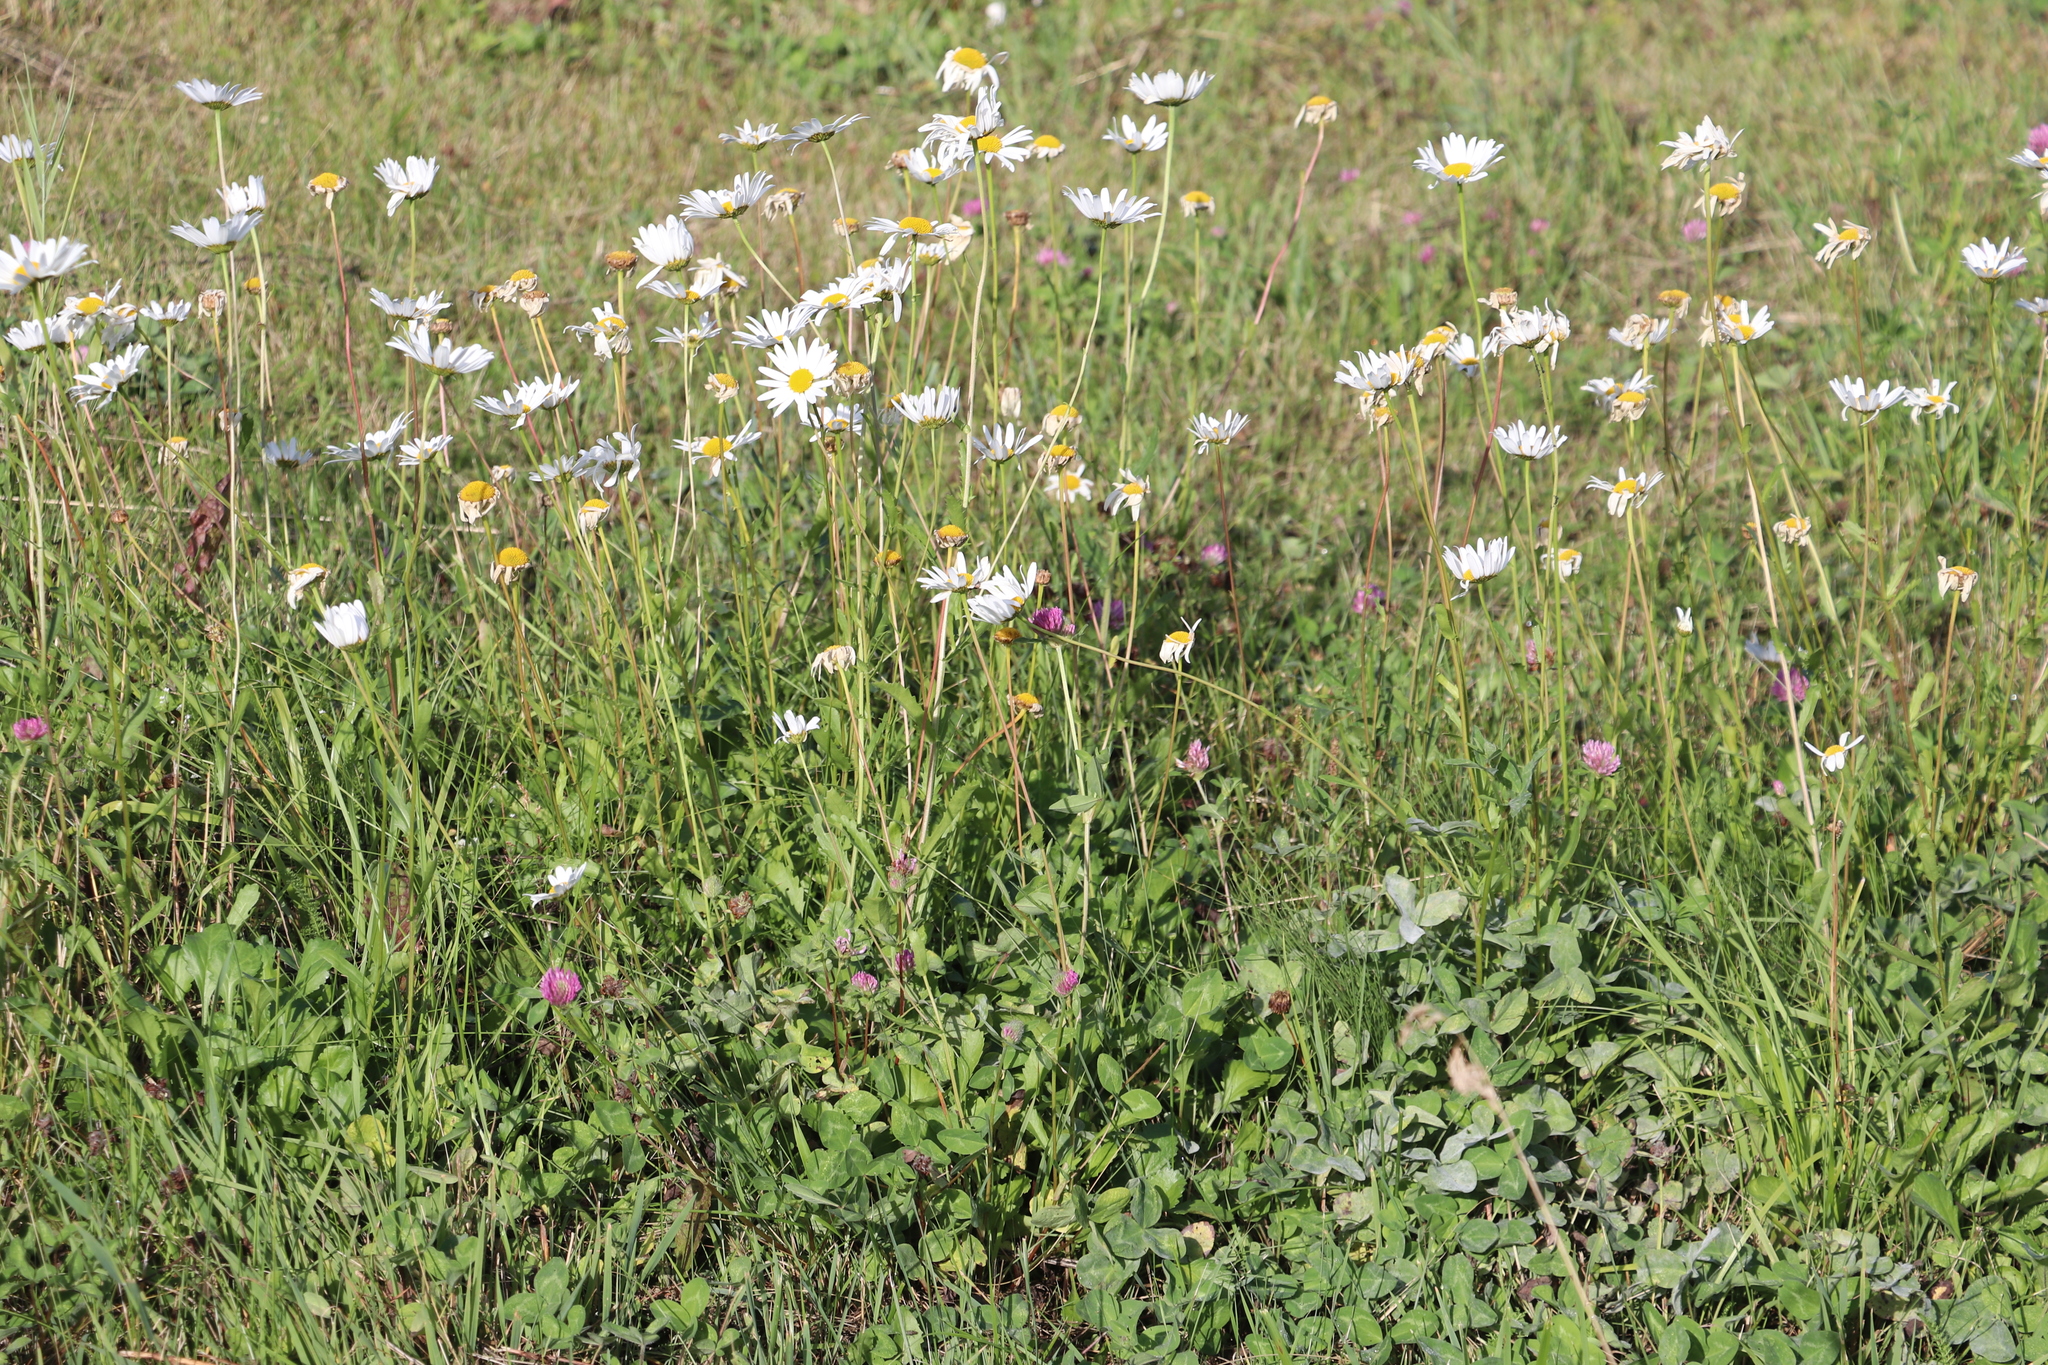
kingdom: Plantae
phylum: Tracheophyta
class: Magnoliopsida
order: Asterales
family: Asteraceae
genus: Leucanthemum
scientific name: Leucanthemum ircutianum
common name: Daisy
